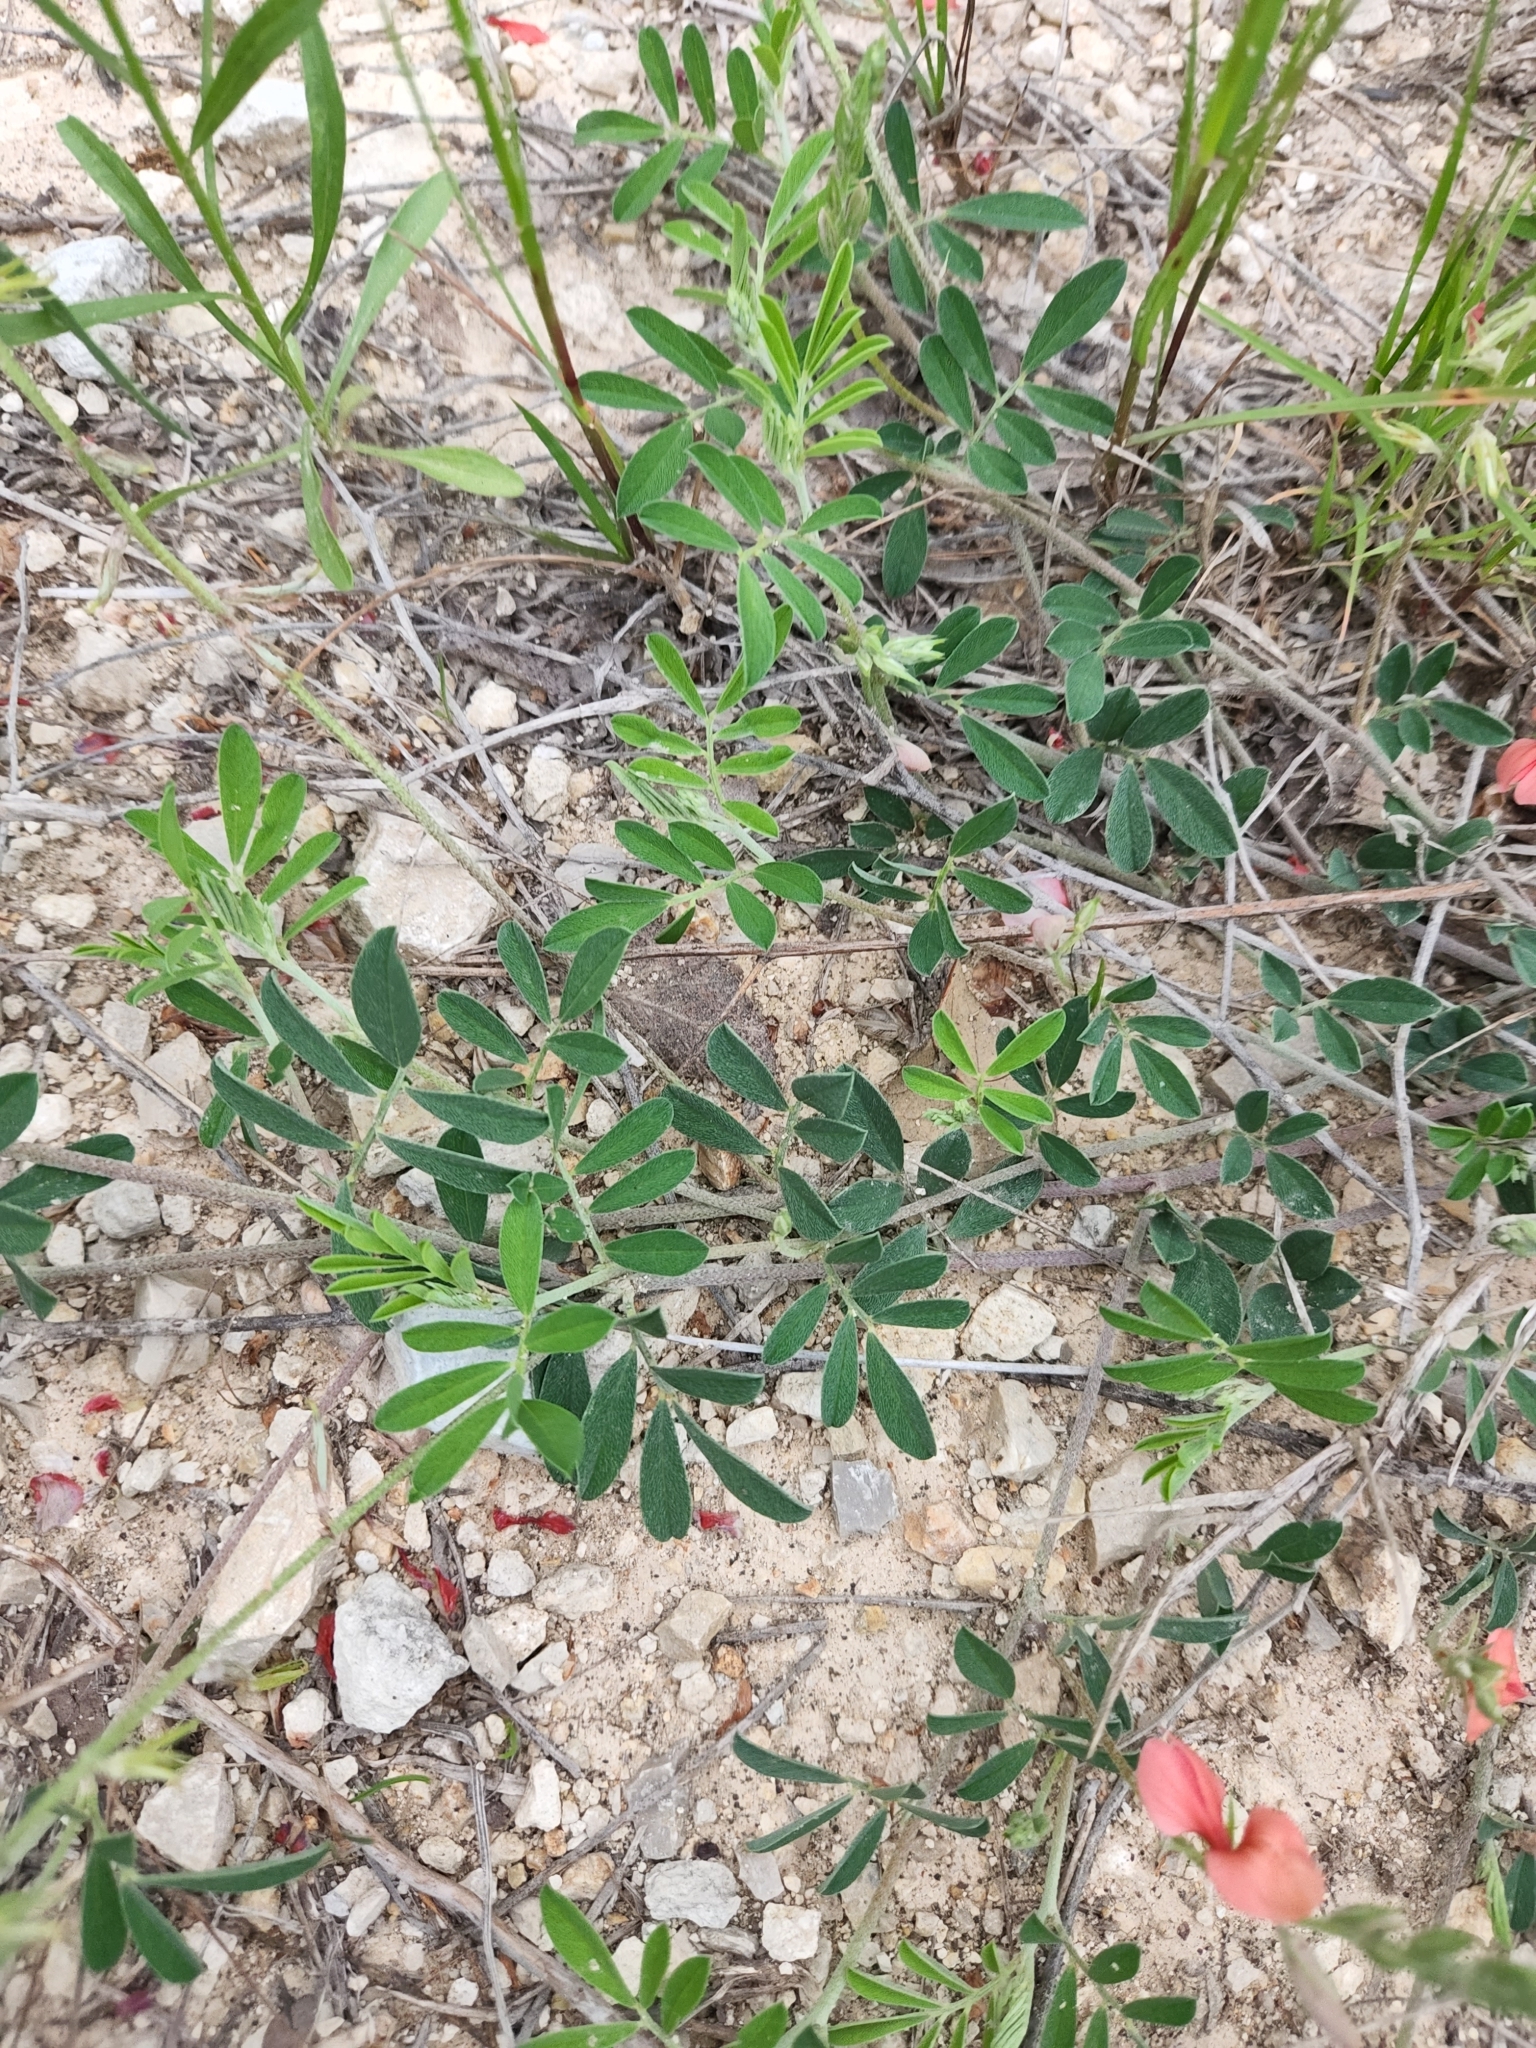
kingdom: Plantae
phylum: Tracheophyta
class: Magnoliopsida
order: Fabales
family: Fabaceae
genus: Indigofera
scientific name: Indigofera miniata
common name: Coast indigo
